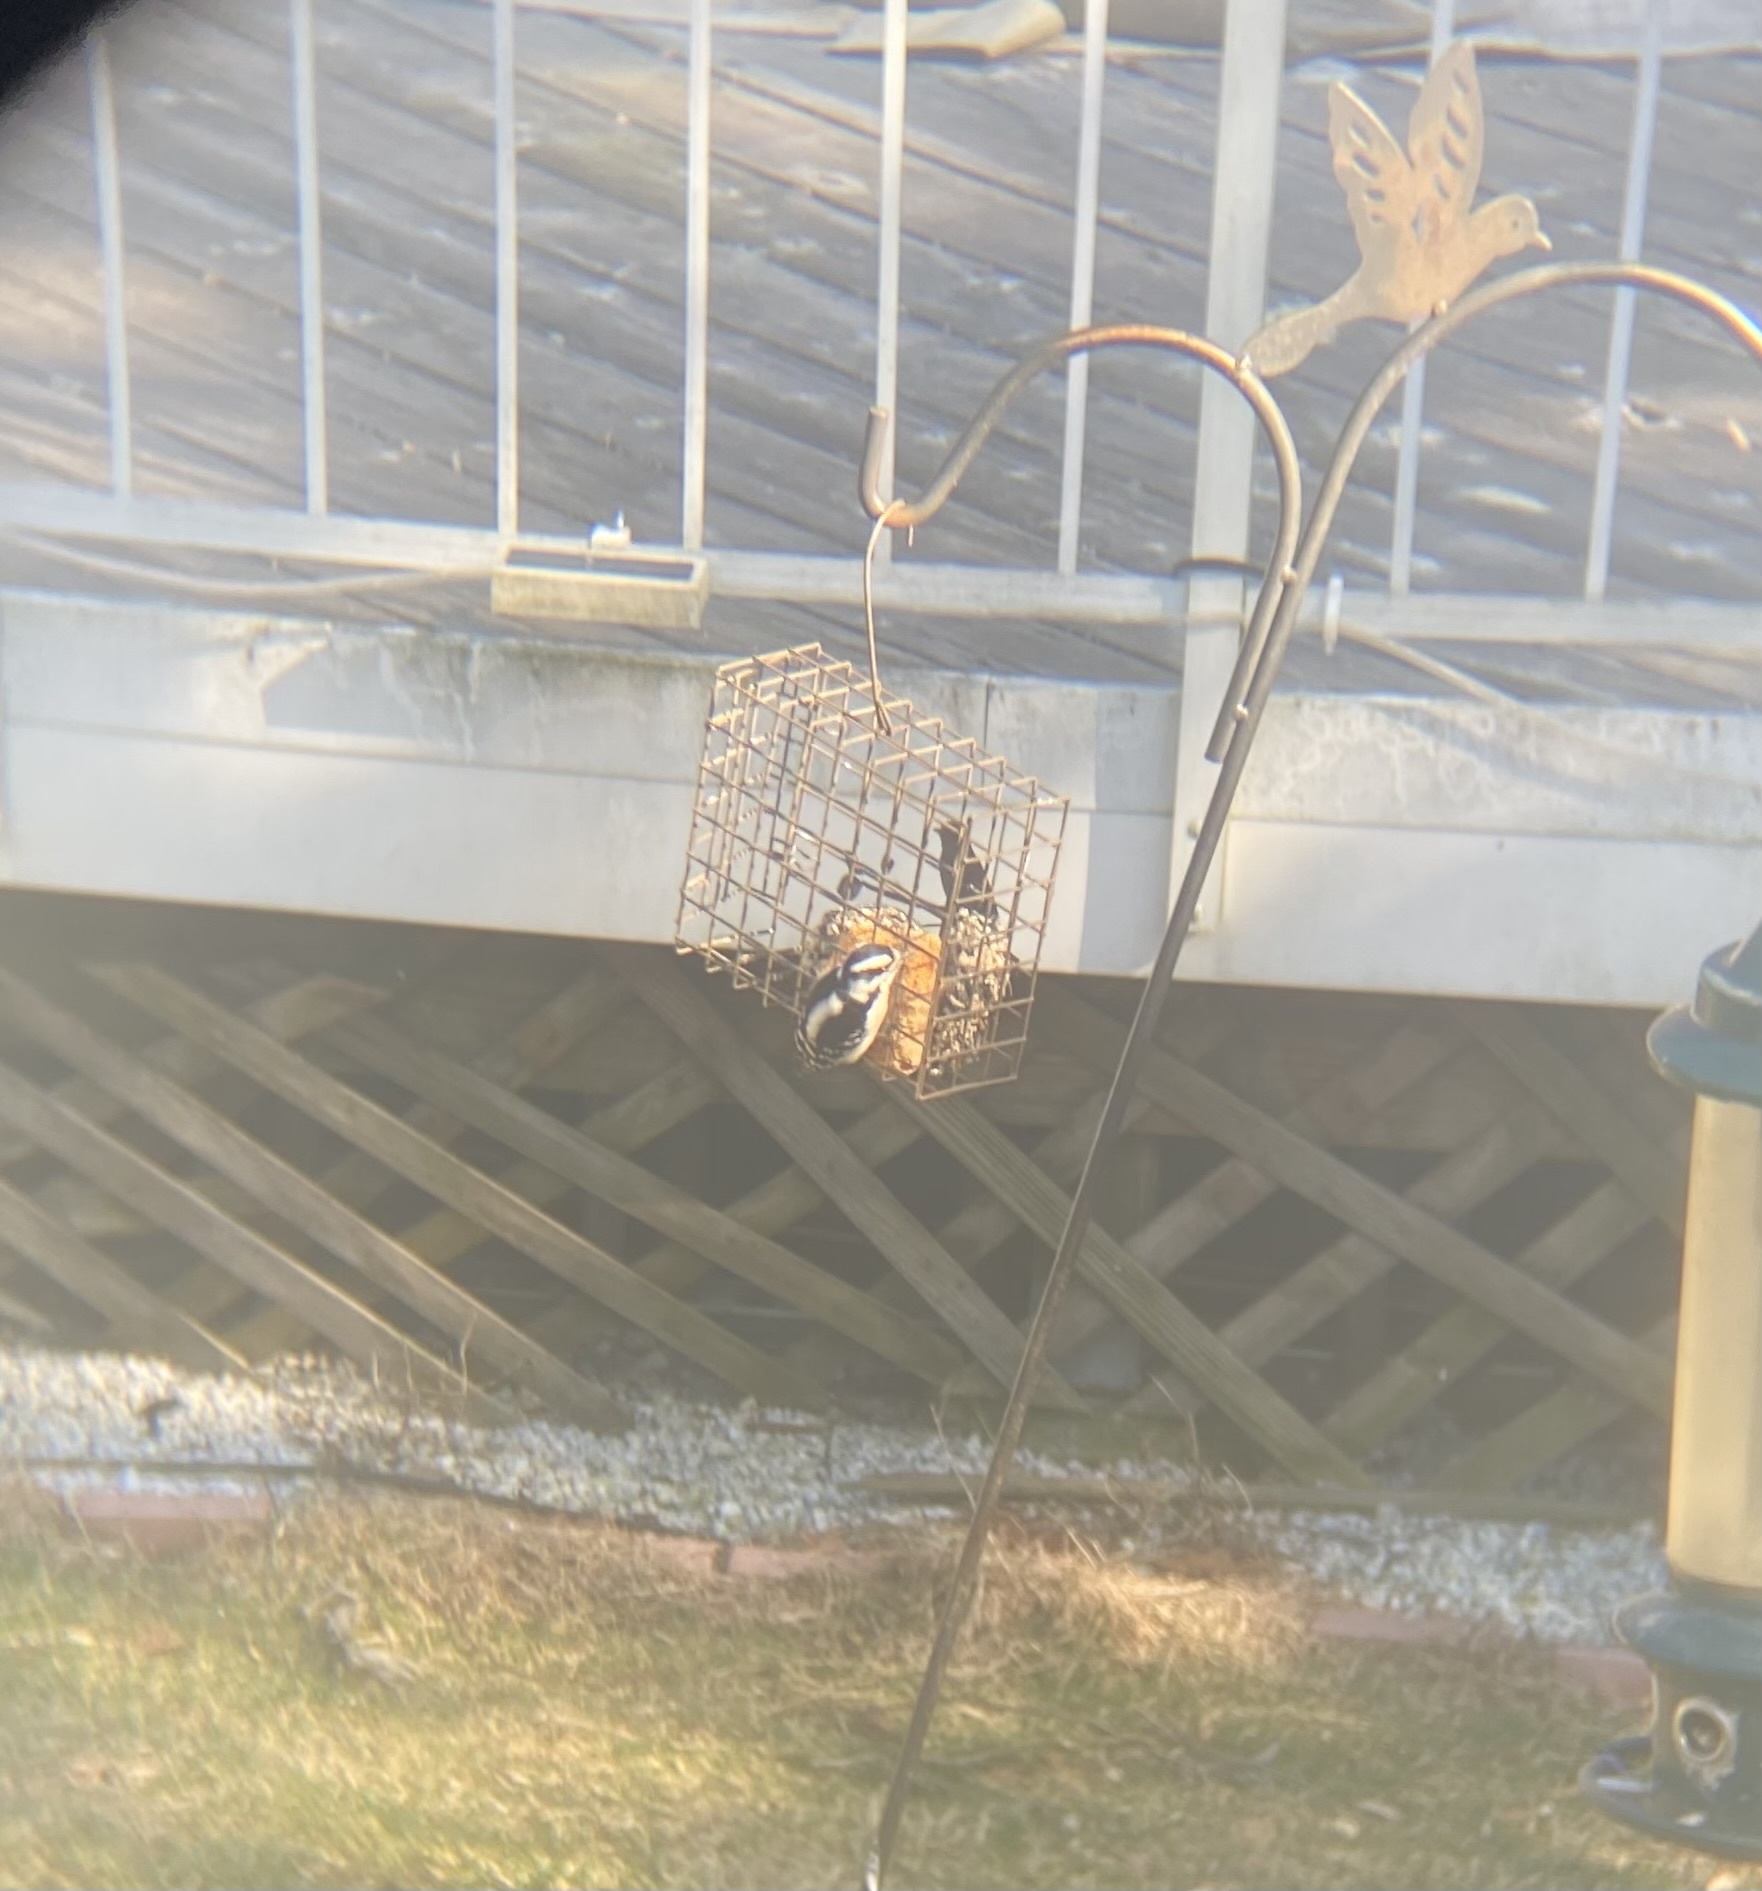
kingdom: Animalia
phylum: Chordata
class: Aves
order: Piciformes
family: Picidae
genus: Dryobates
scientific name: Dryobates pubescens
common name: Downy woodpecker
